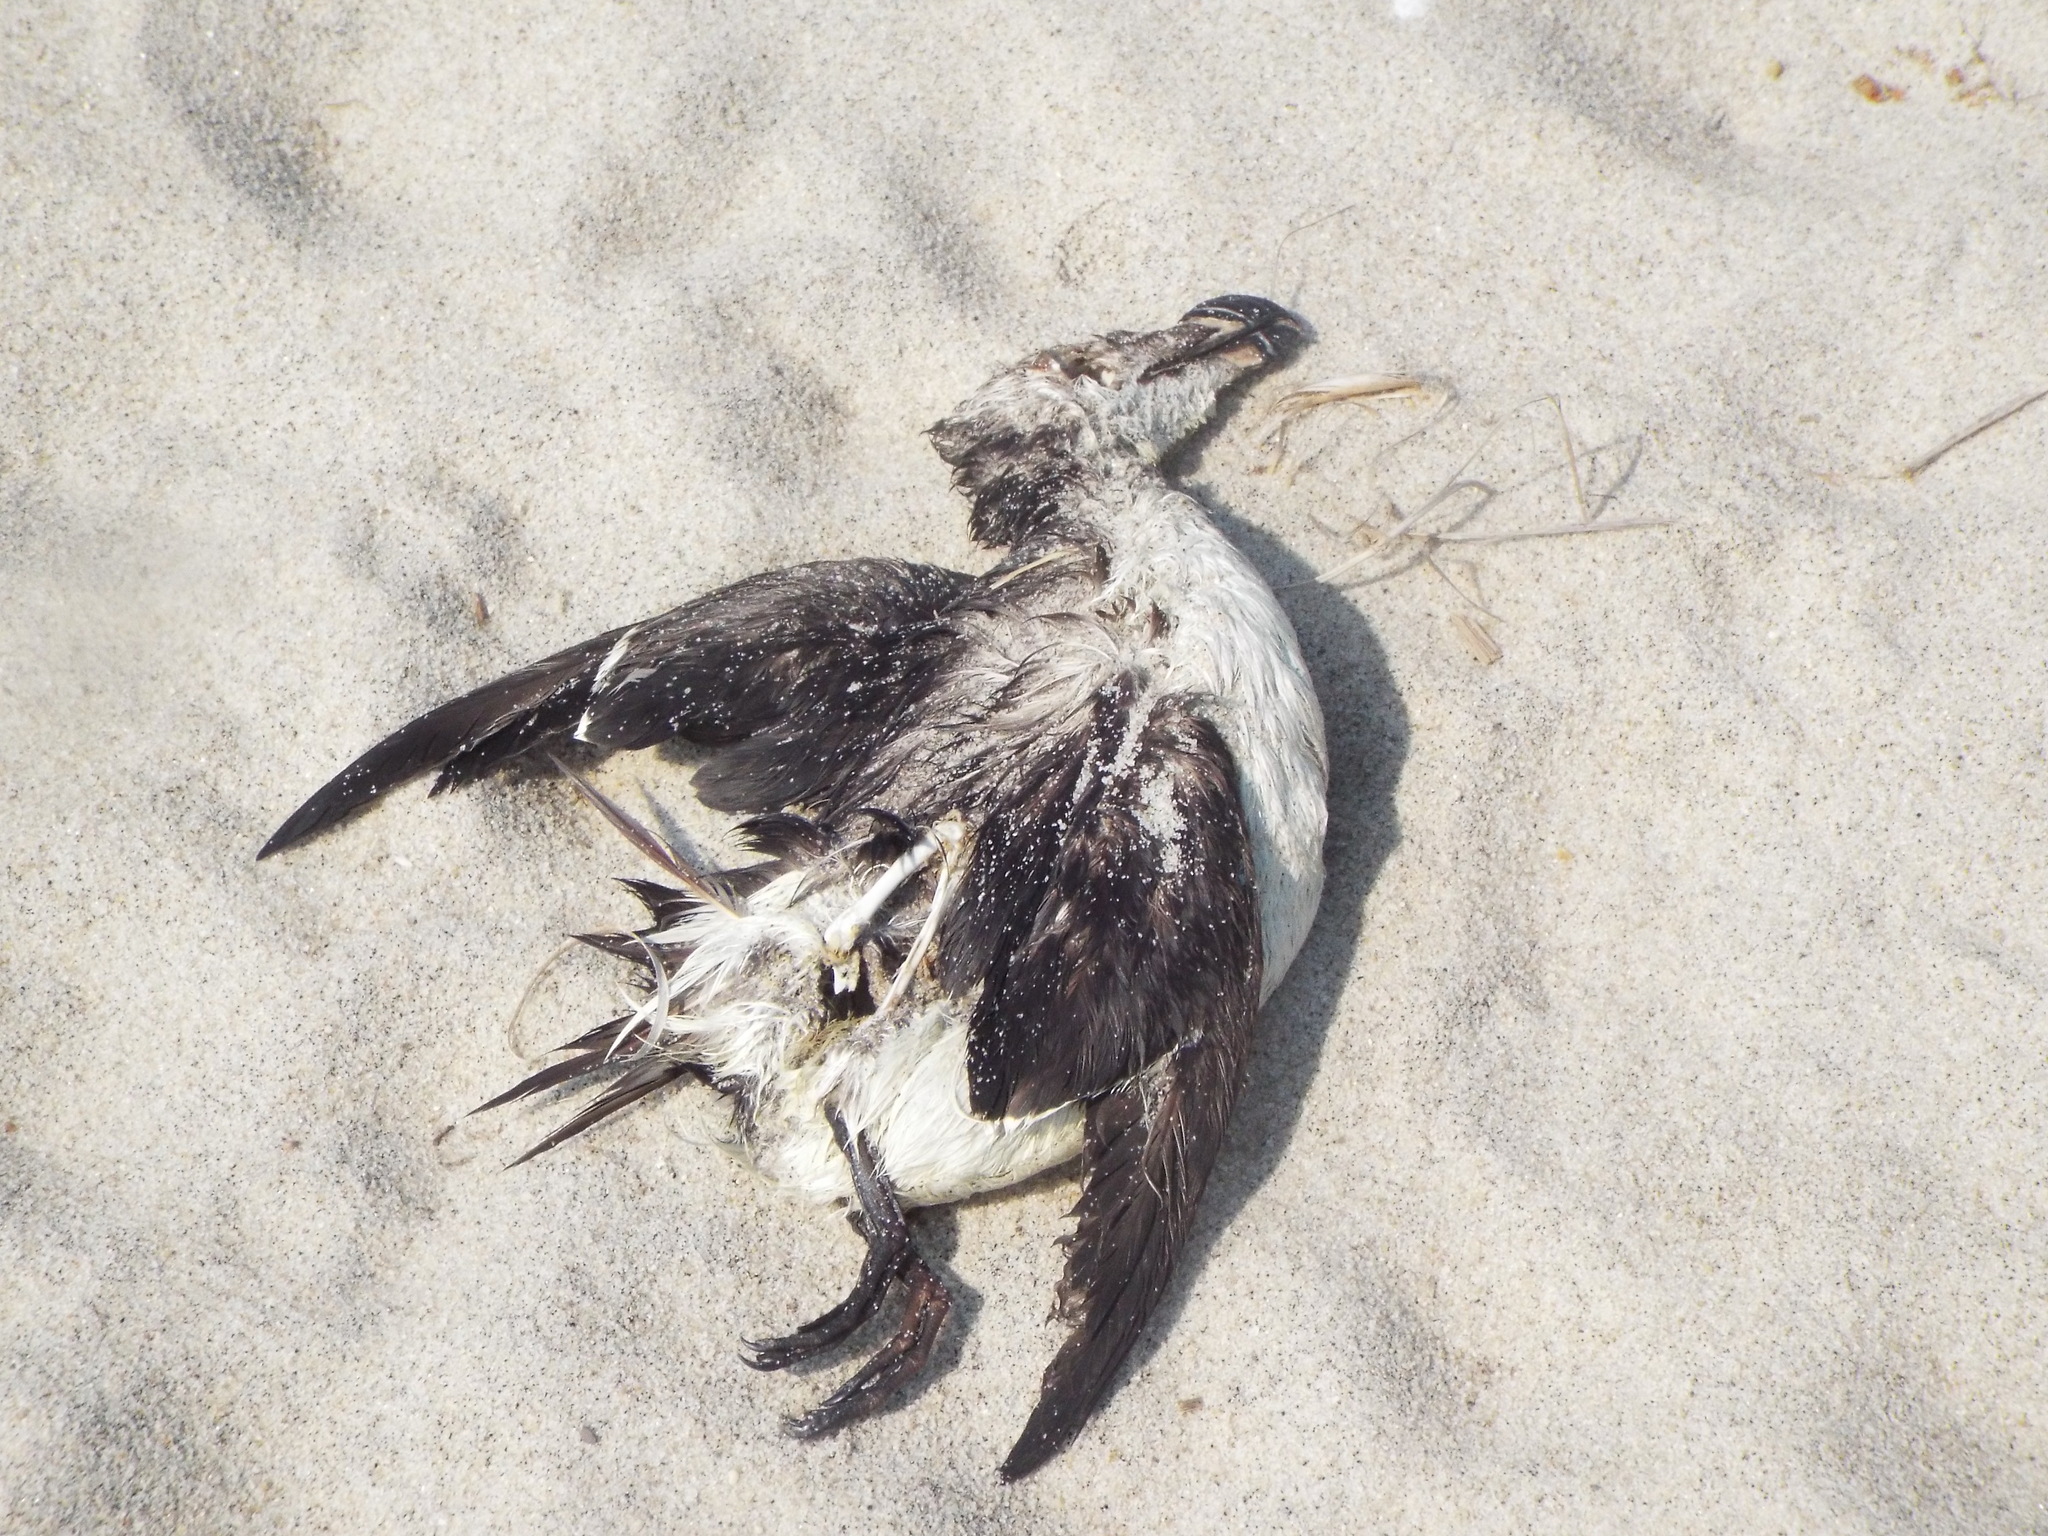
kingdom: Animalia
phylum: Chordata
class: Aves
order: Charadriiformes
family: Alcidae
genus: Alca
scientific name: Alca torda
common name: Razorbill
